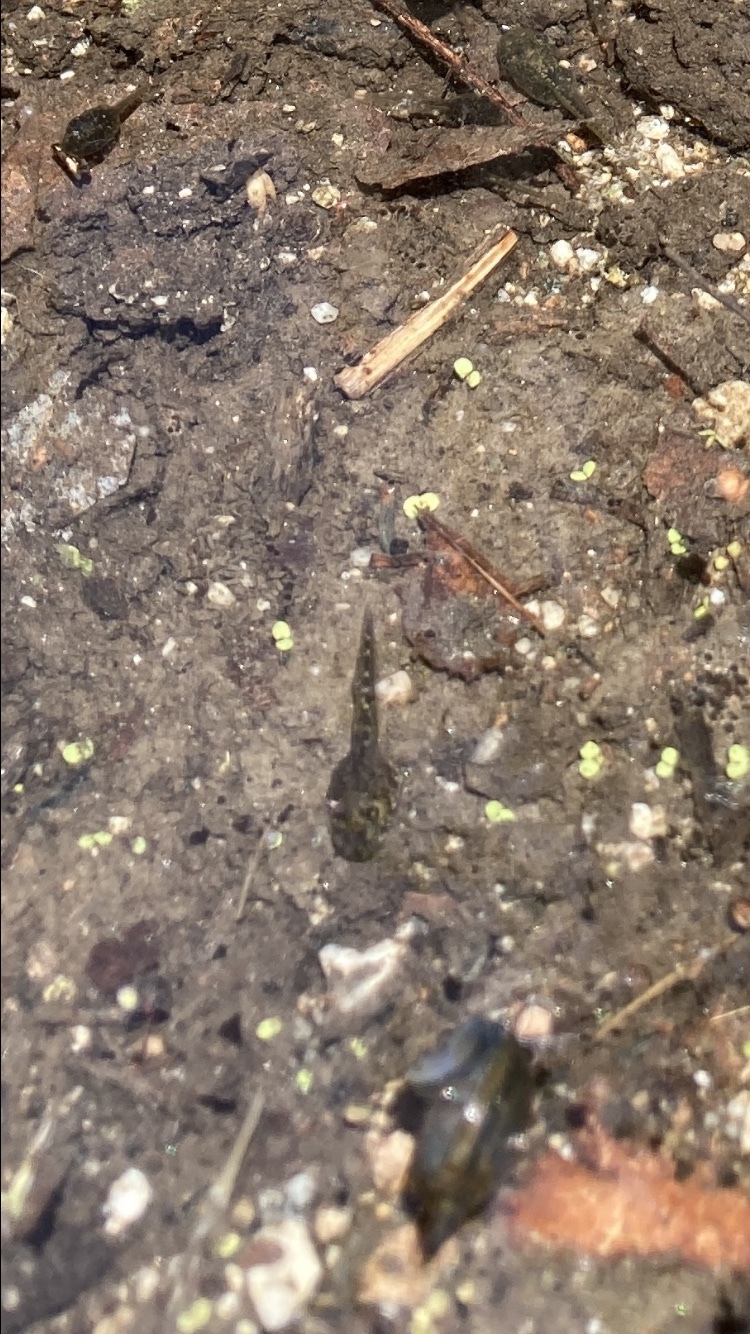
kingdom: Animalia
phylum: Chordata
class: Amphibia
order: Anura
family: Hylidae
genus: Pseudacris
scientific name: Pseudacris regilla
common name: Pacific chorus frog
